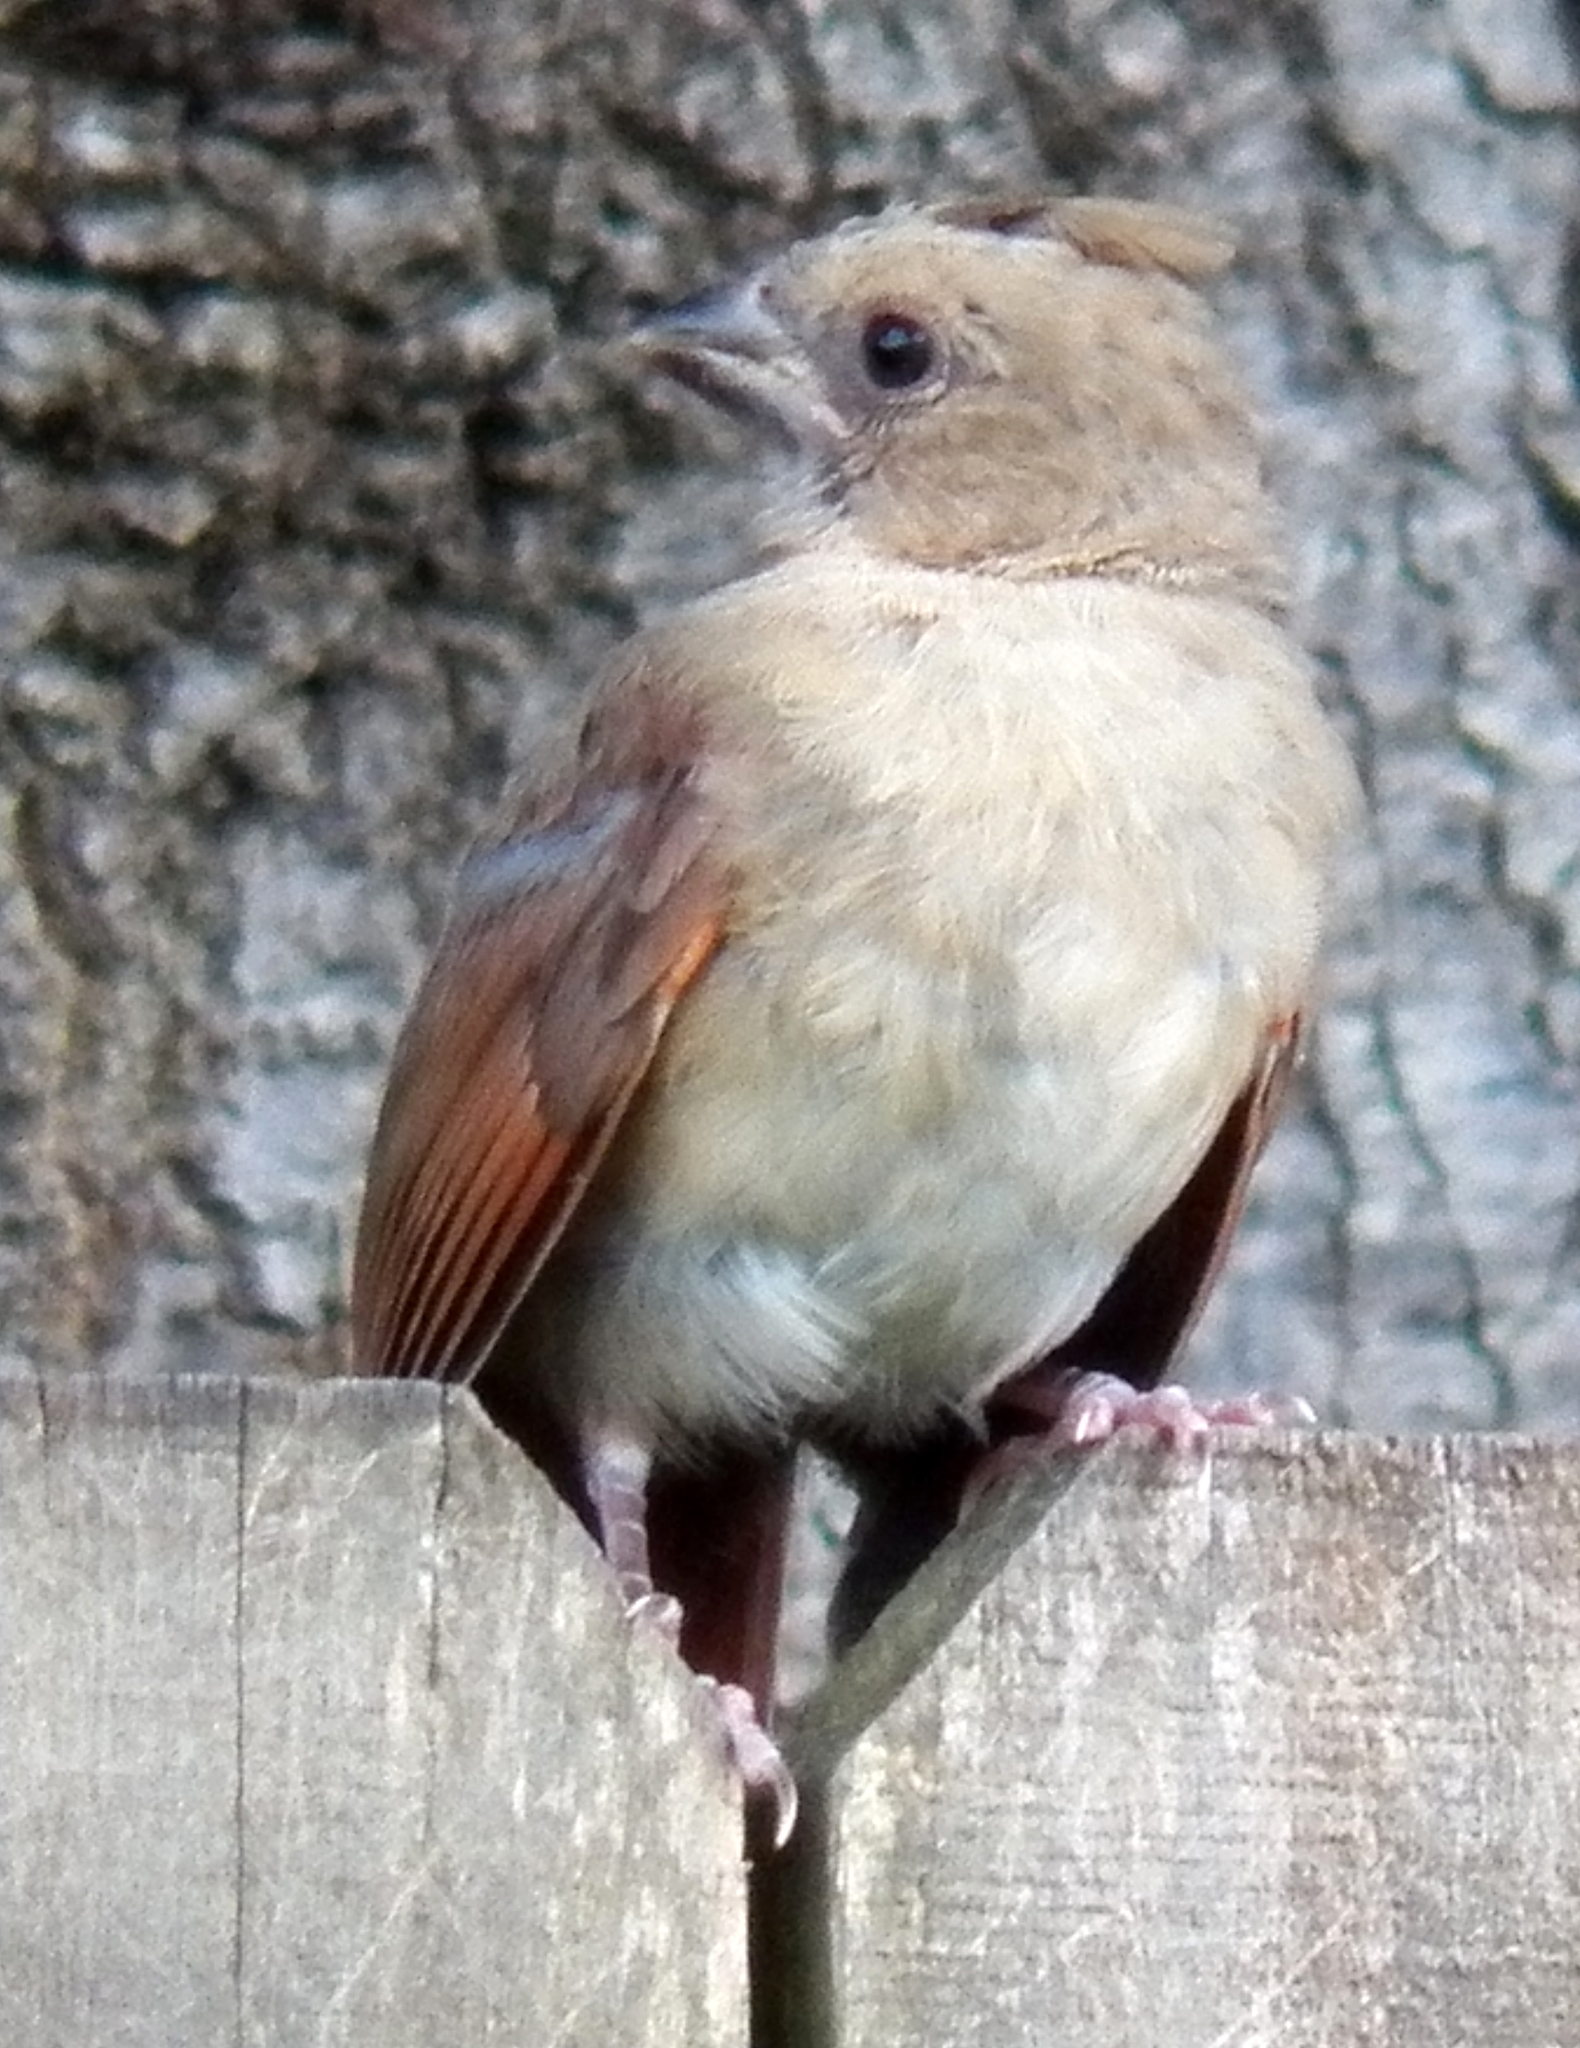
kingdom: Animalia
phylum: Chordata
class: Aves
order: Passeriformes
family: Cardinalidae
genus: Cardinalis
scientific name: Cardinalis cardinalis
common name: Northern cardinal
